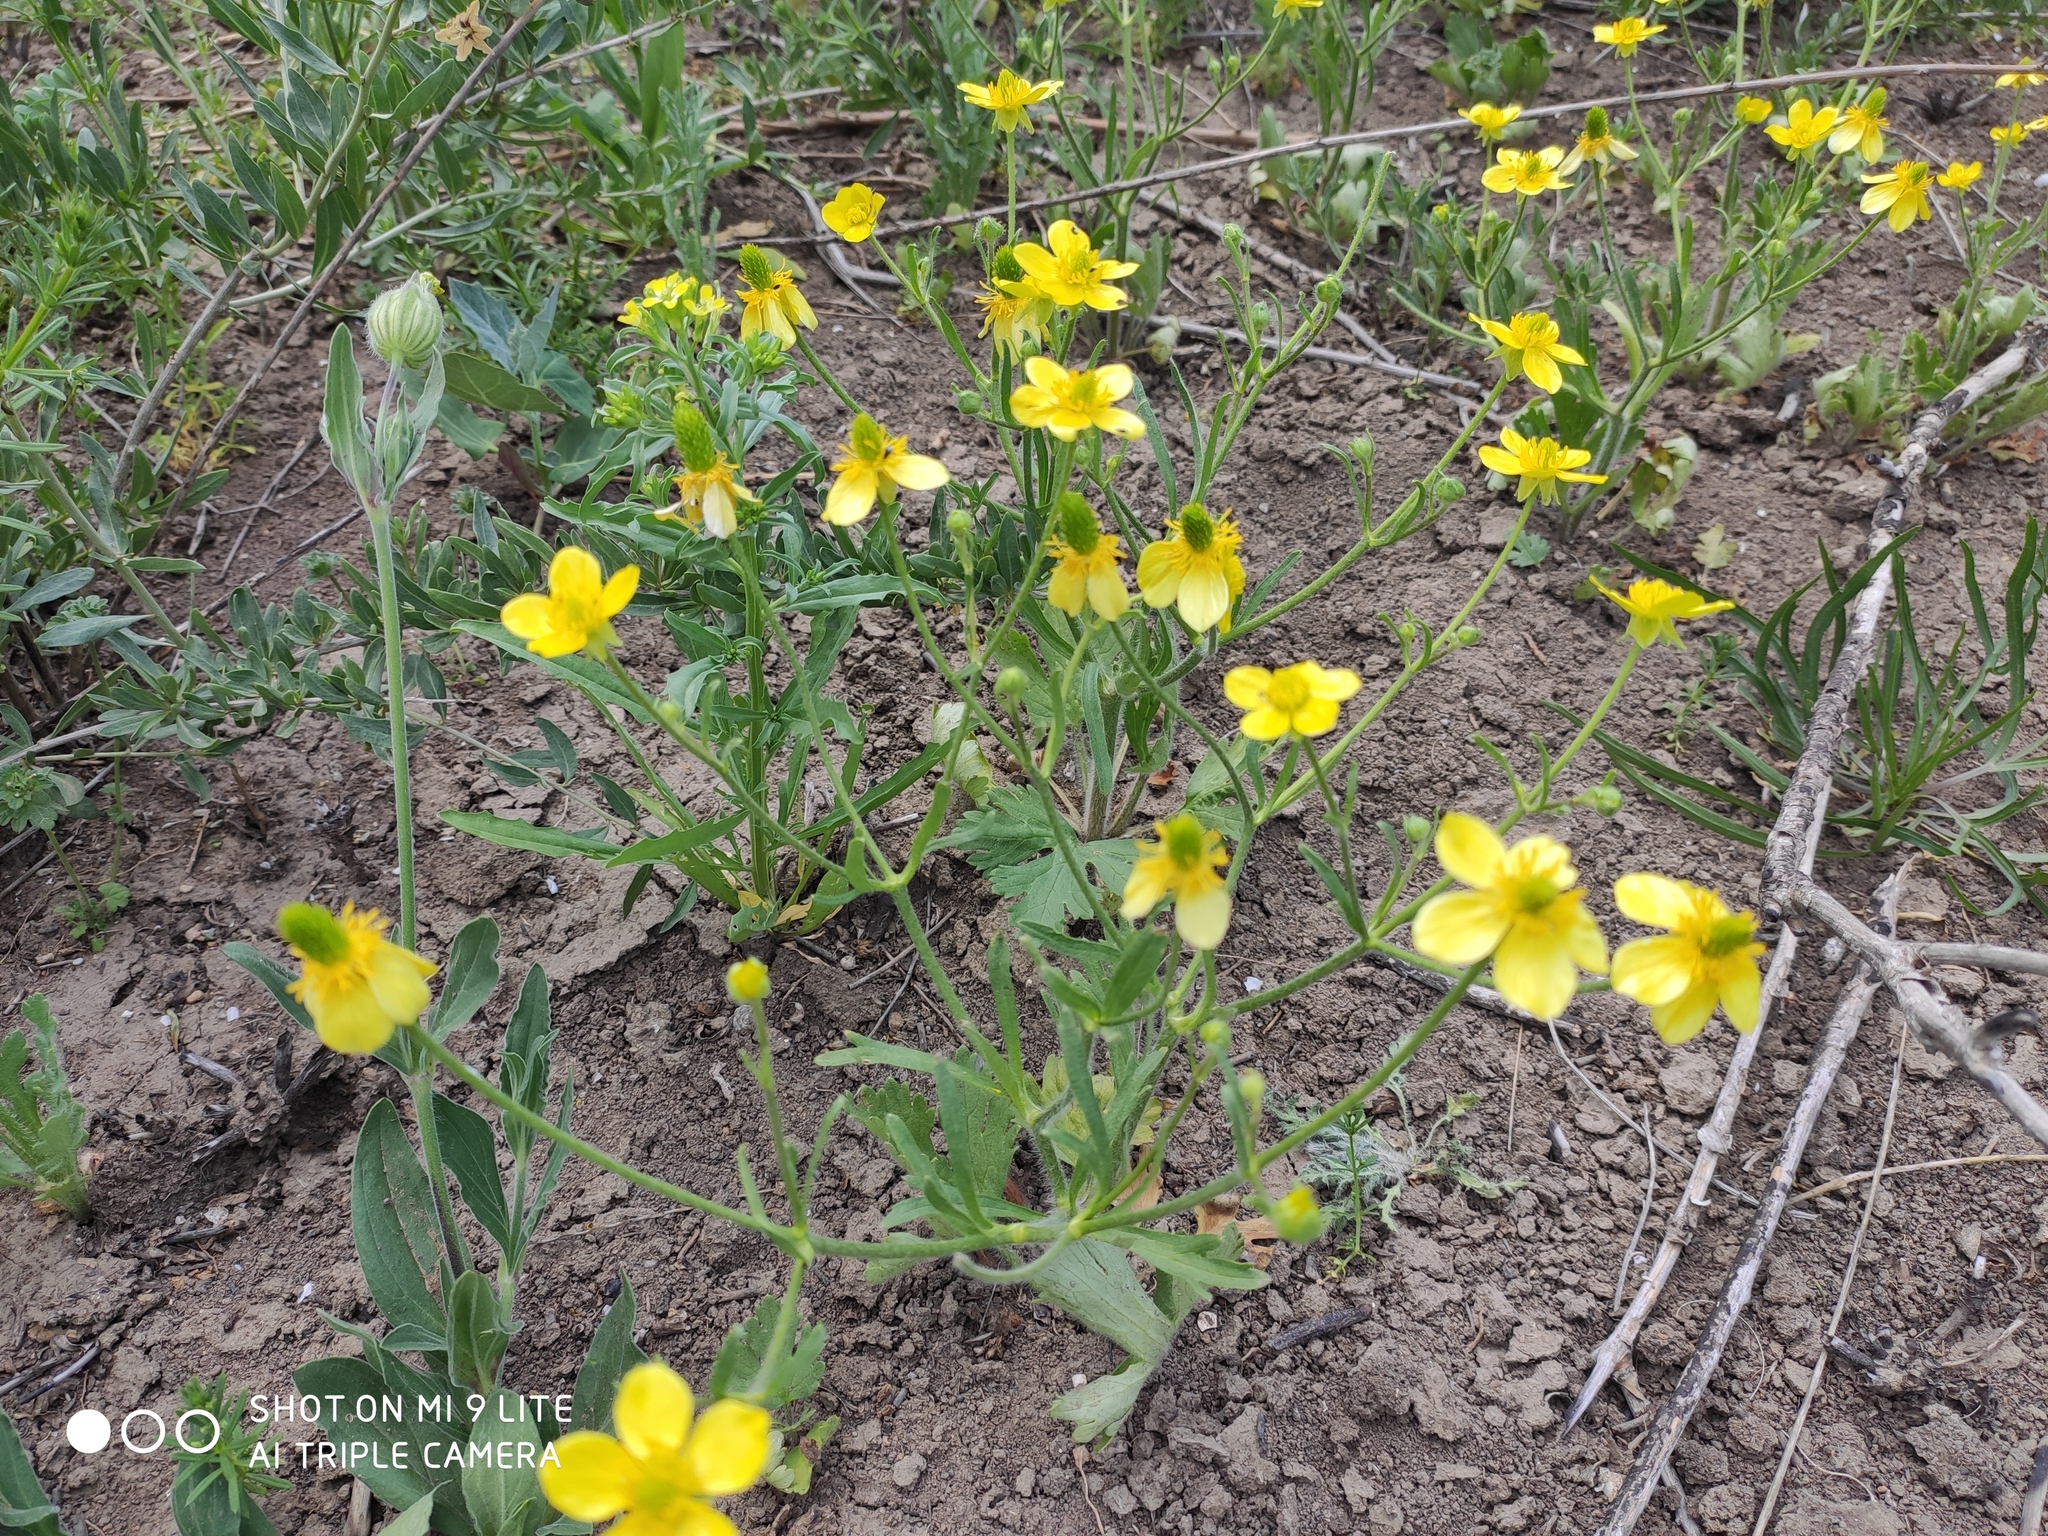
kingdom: Plantae
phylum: Tracheophyta
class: Magnoliopsida
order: Ranunculales
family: Ranunculaceae
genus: Ranunculus
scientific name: Ranunculus oxyspermus
